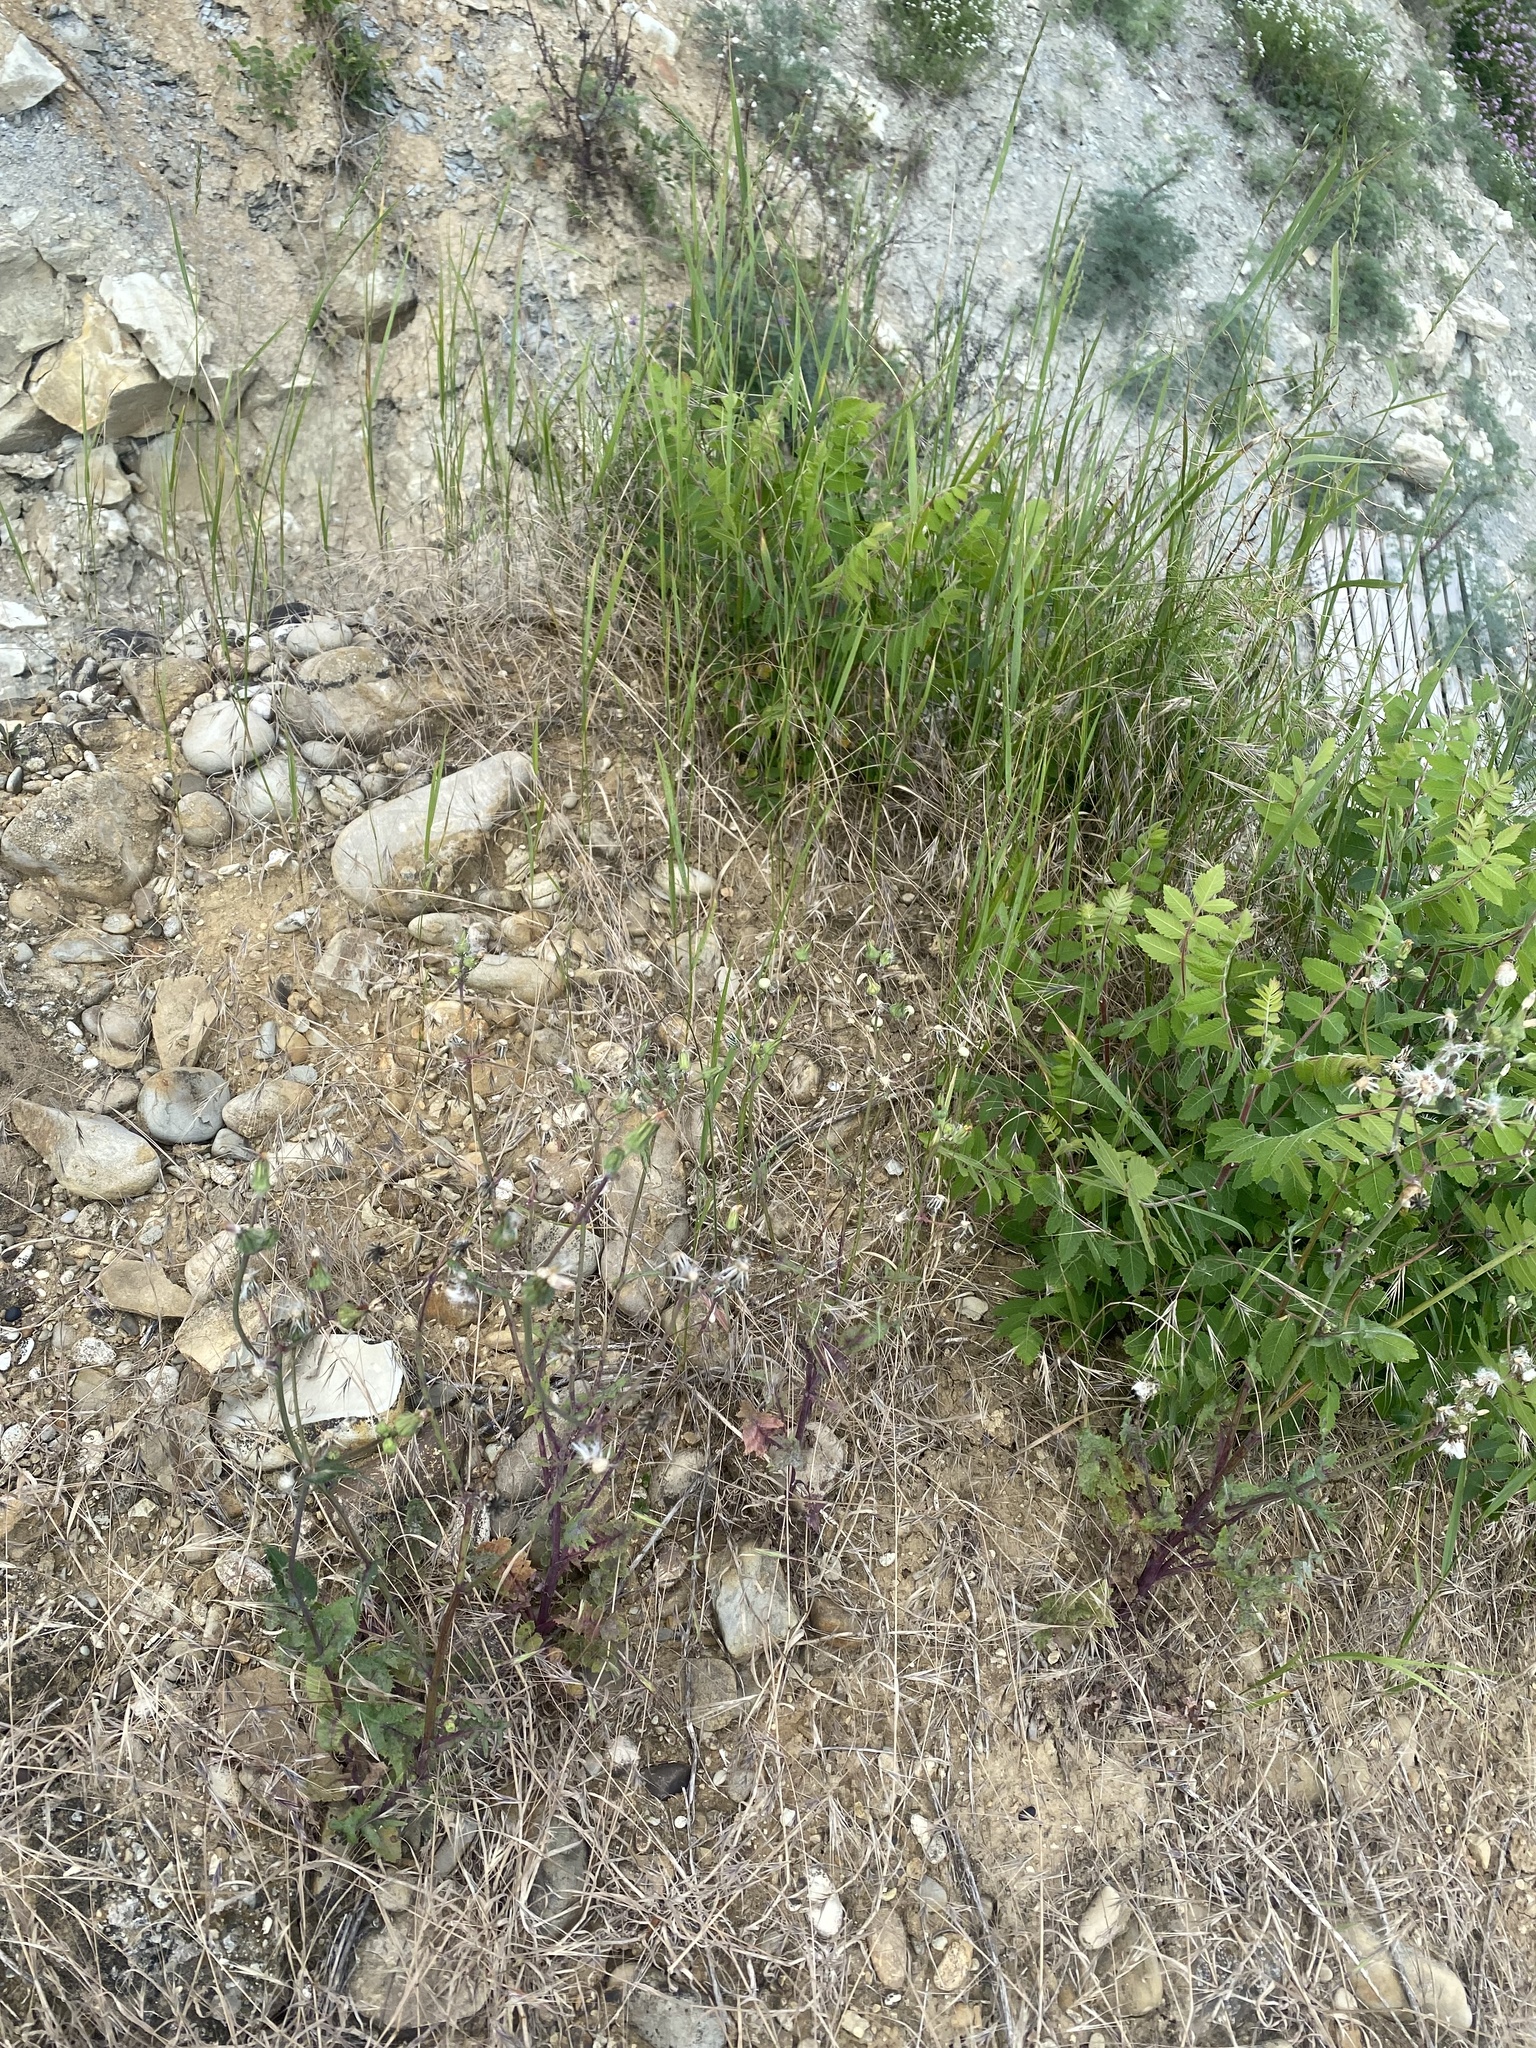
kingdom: Plantae
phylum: Tracheophyta
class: Magnoliopsida
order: Asterales
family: Asteraceae
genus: Sonchus
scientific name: Sonchus asper
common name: Prickly sow-thistle
